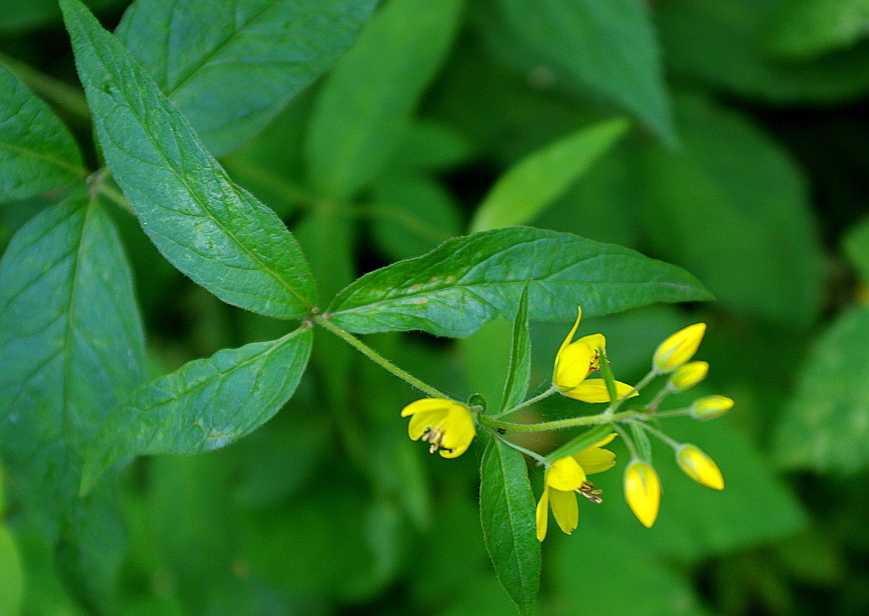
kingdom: Plantae
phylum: Tracheophyta
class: Magnoliopsida
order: Ericales
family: Primulaceae
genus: Lysimachia
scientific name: Lysimachia vulgaris
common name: Yellow loosestrife
